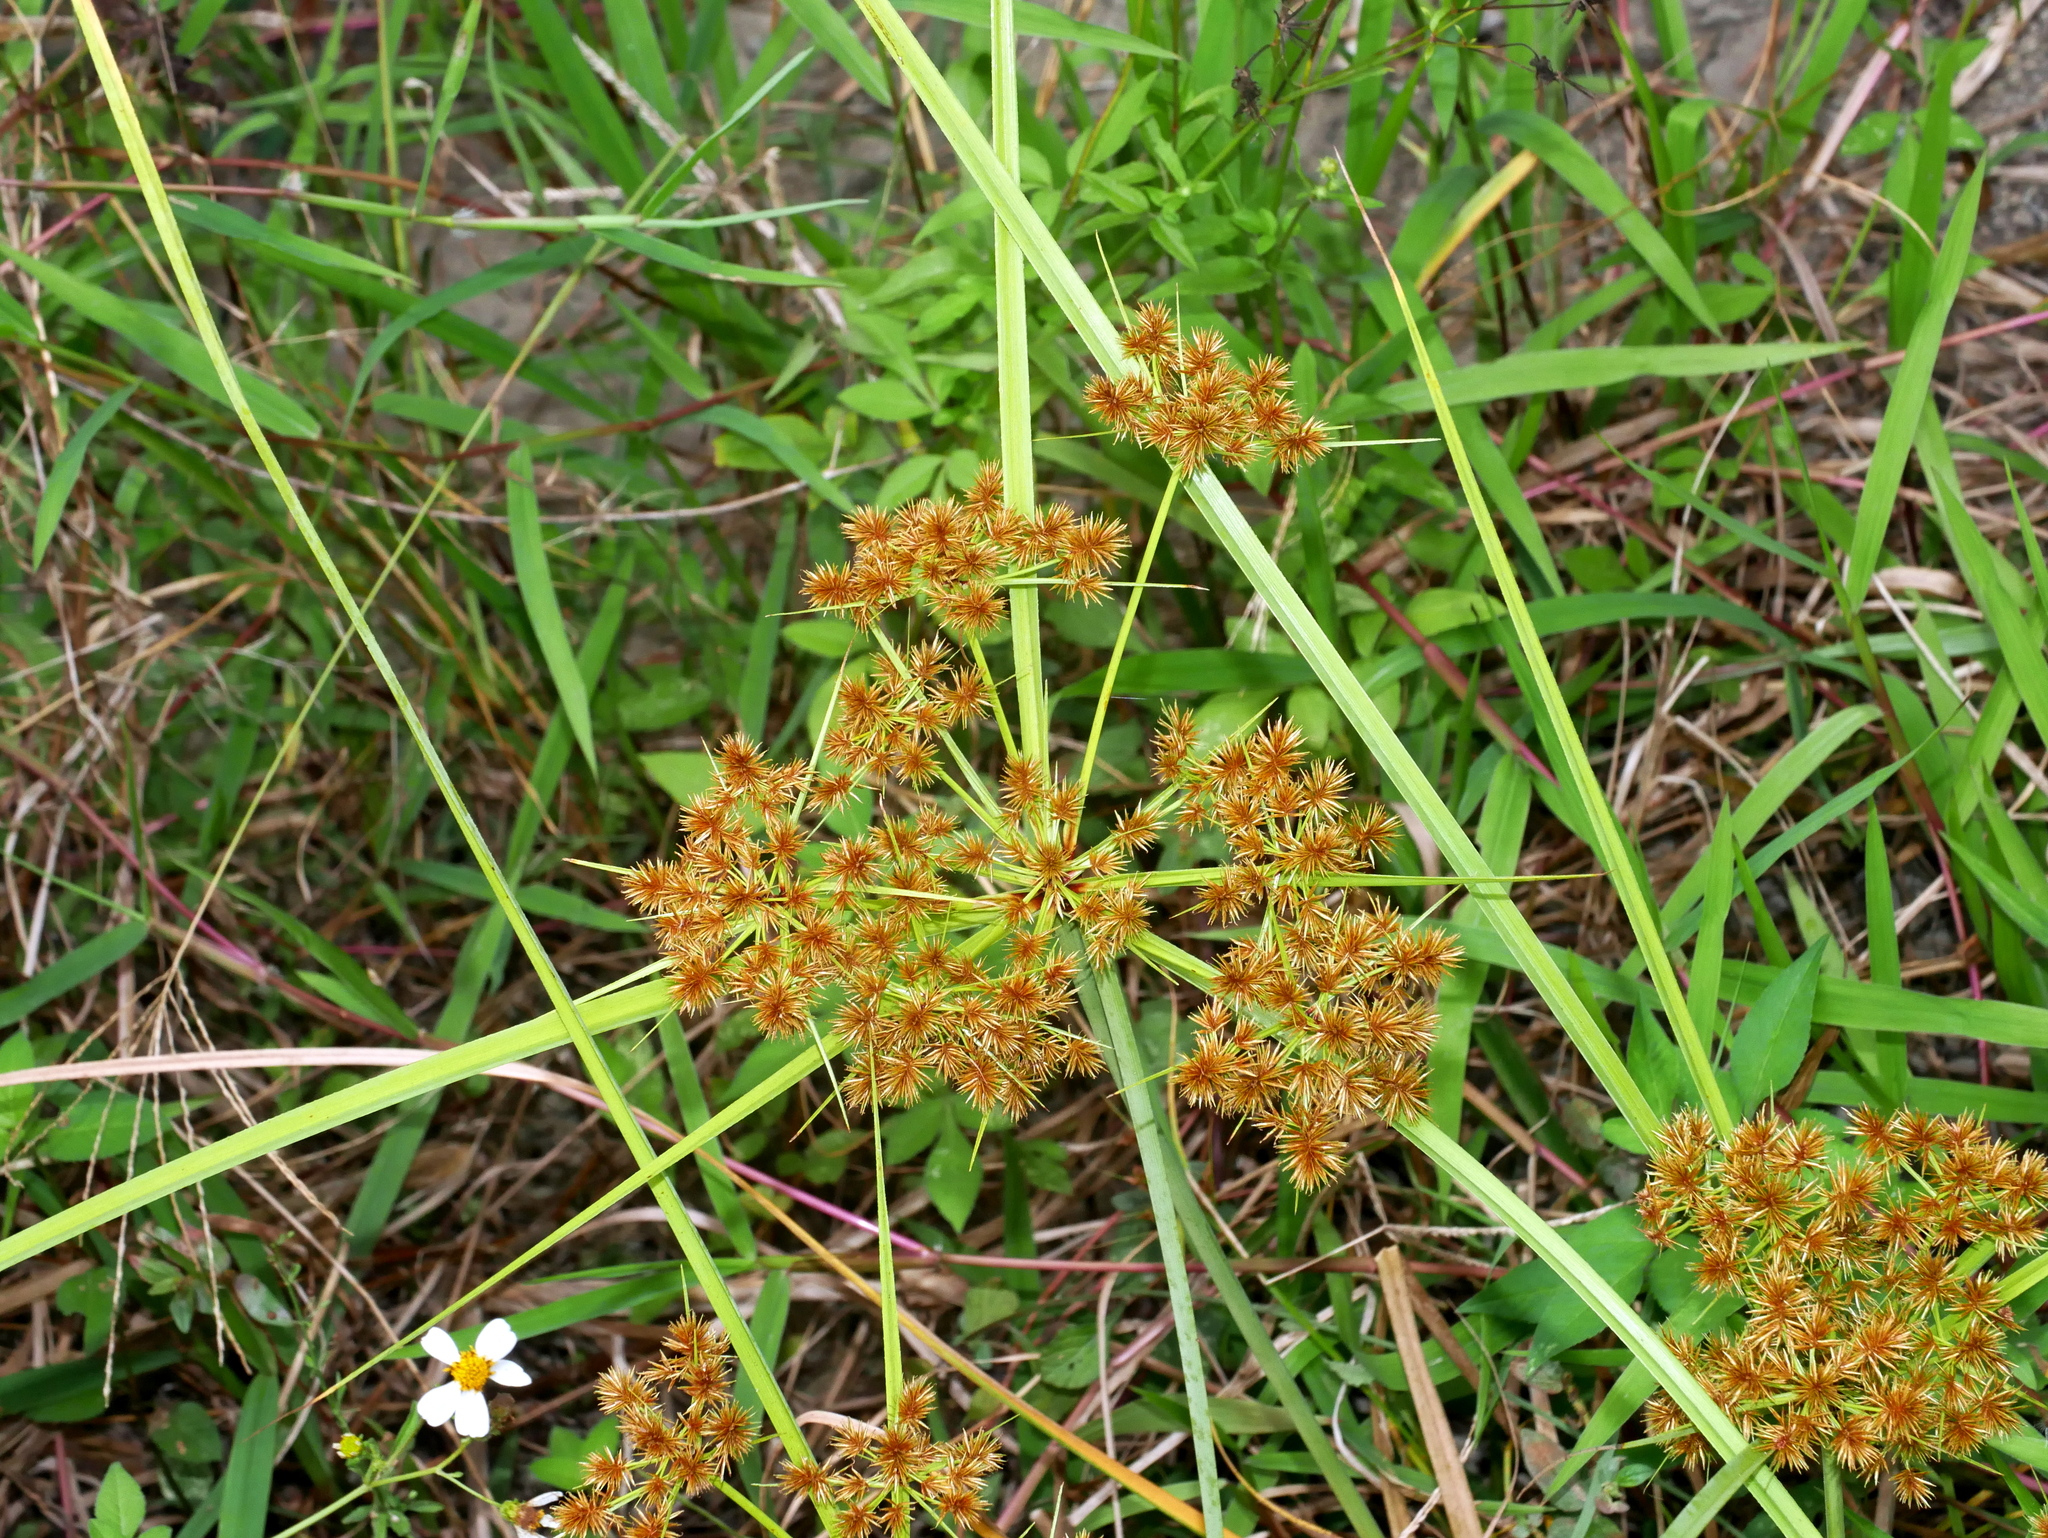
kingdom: Plantae
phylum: Tracheophyta
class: Liliopsida
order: Poales
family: Cyperaceae
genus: Cyperus
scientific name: Cyperus compactus
